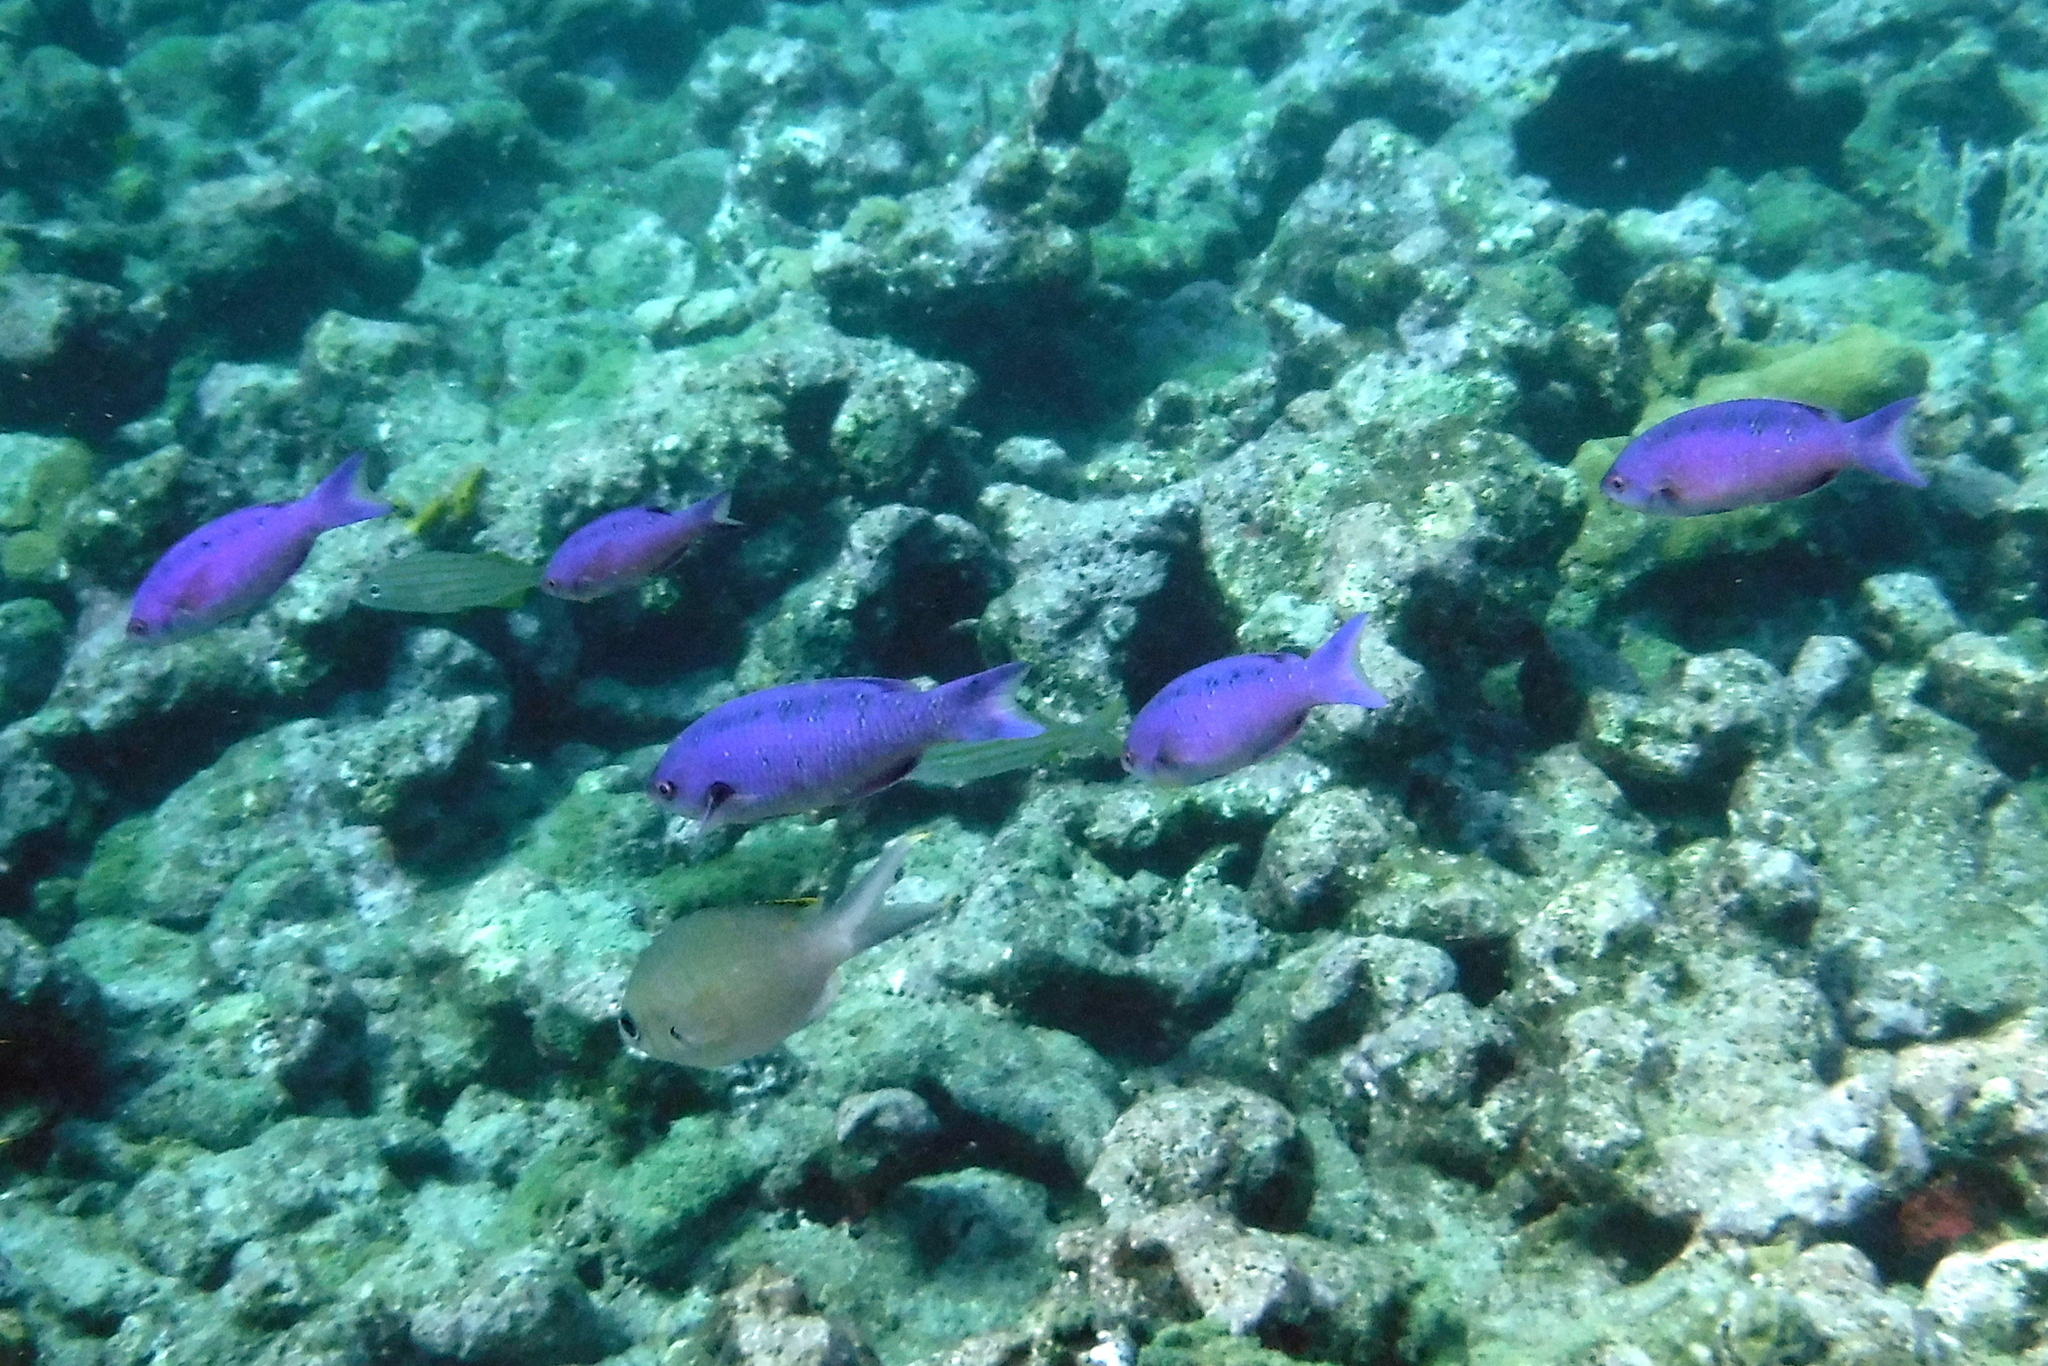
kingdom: Animalia
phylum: Chordata
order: Perciformes
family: Labridae
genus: Bodianus
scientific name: Bodianus
